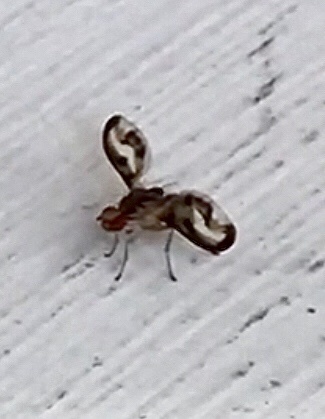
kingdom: Animalia
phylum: Arthropoda
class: Insecta
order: Diptera
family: Pallopteridae
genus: Toxonevra
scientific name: Toxonevra muliebris
